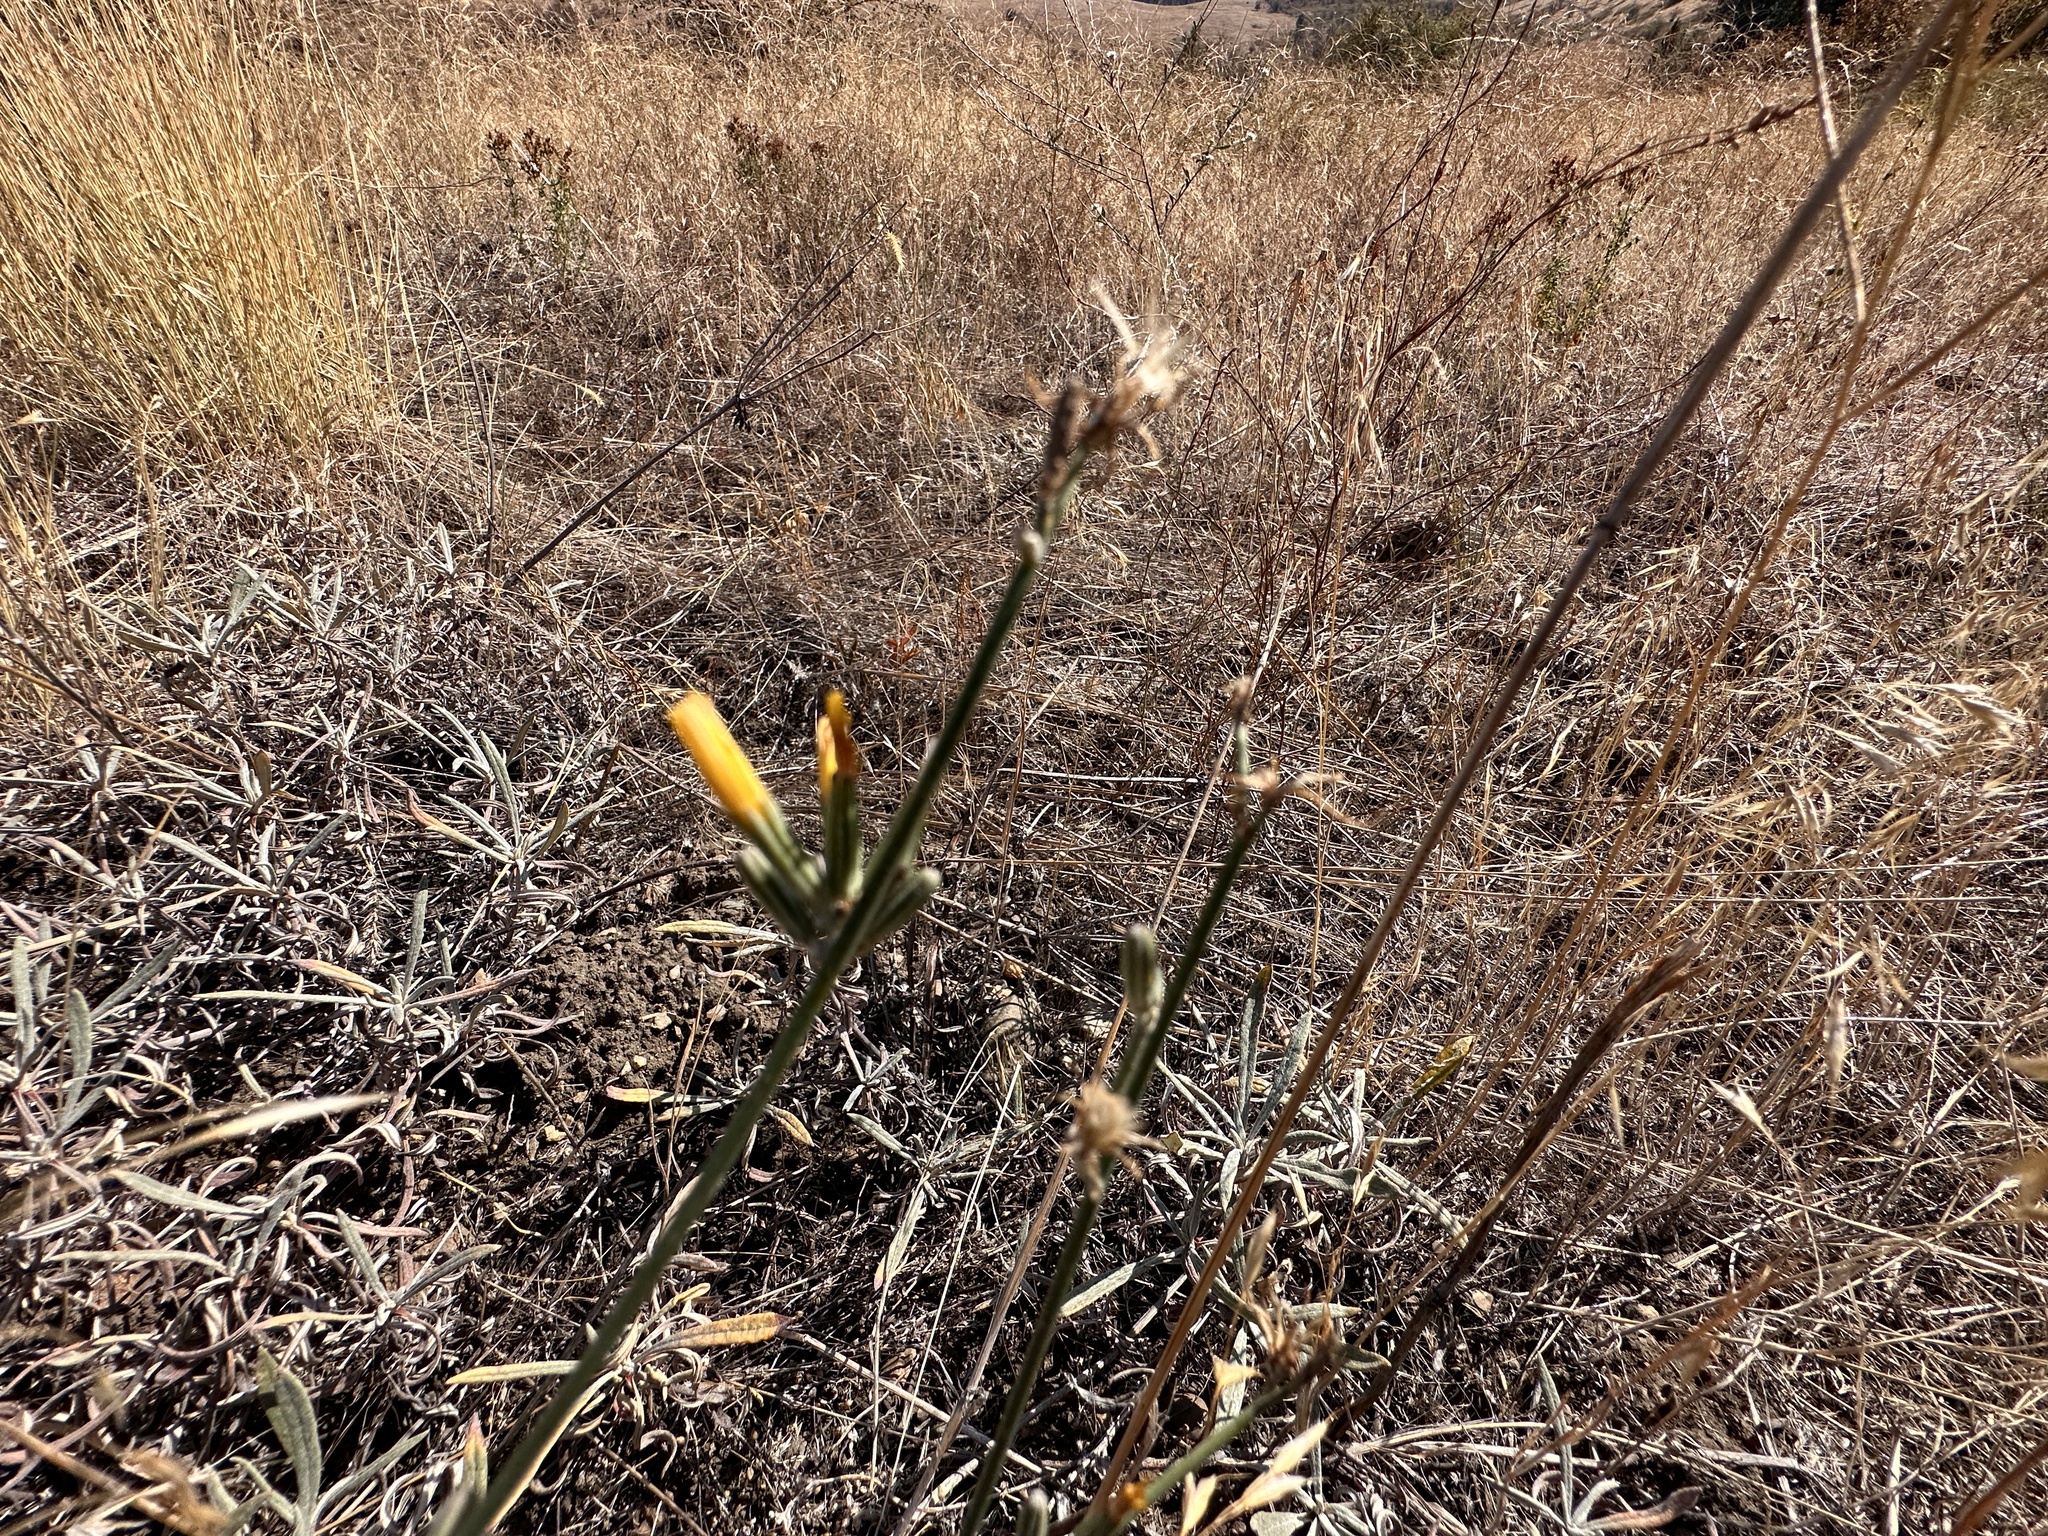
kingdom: Plantae
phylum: Tracheophyta
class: Magnoliopsida
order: Asterales
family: Asteraceae
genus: Chondrilla
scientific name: Chondrilla juncea
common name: Skeleton weed
